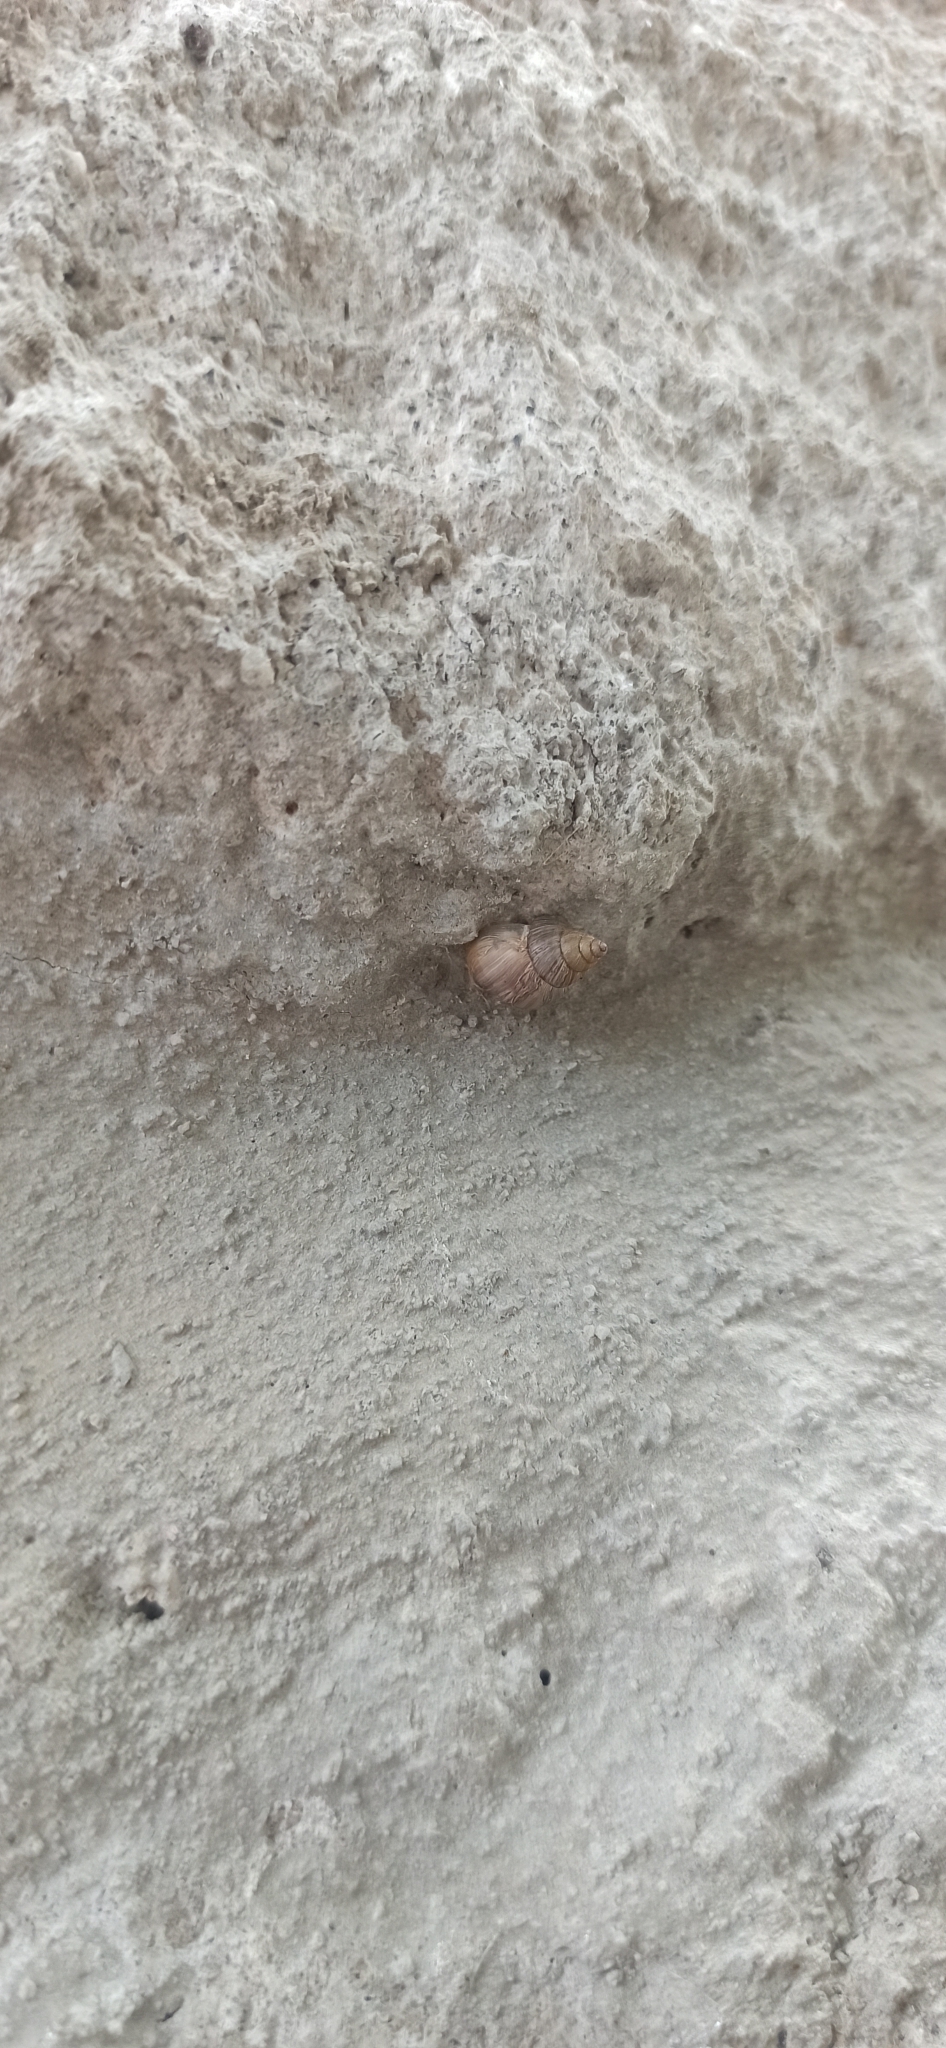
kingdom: Animalia
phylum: Mollusca
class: Gastropoda
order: Stylommatophora
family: Bulimulidae
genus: Naesiotus
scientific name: Naesiotus quitensis
